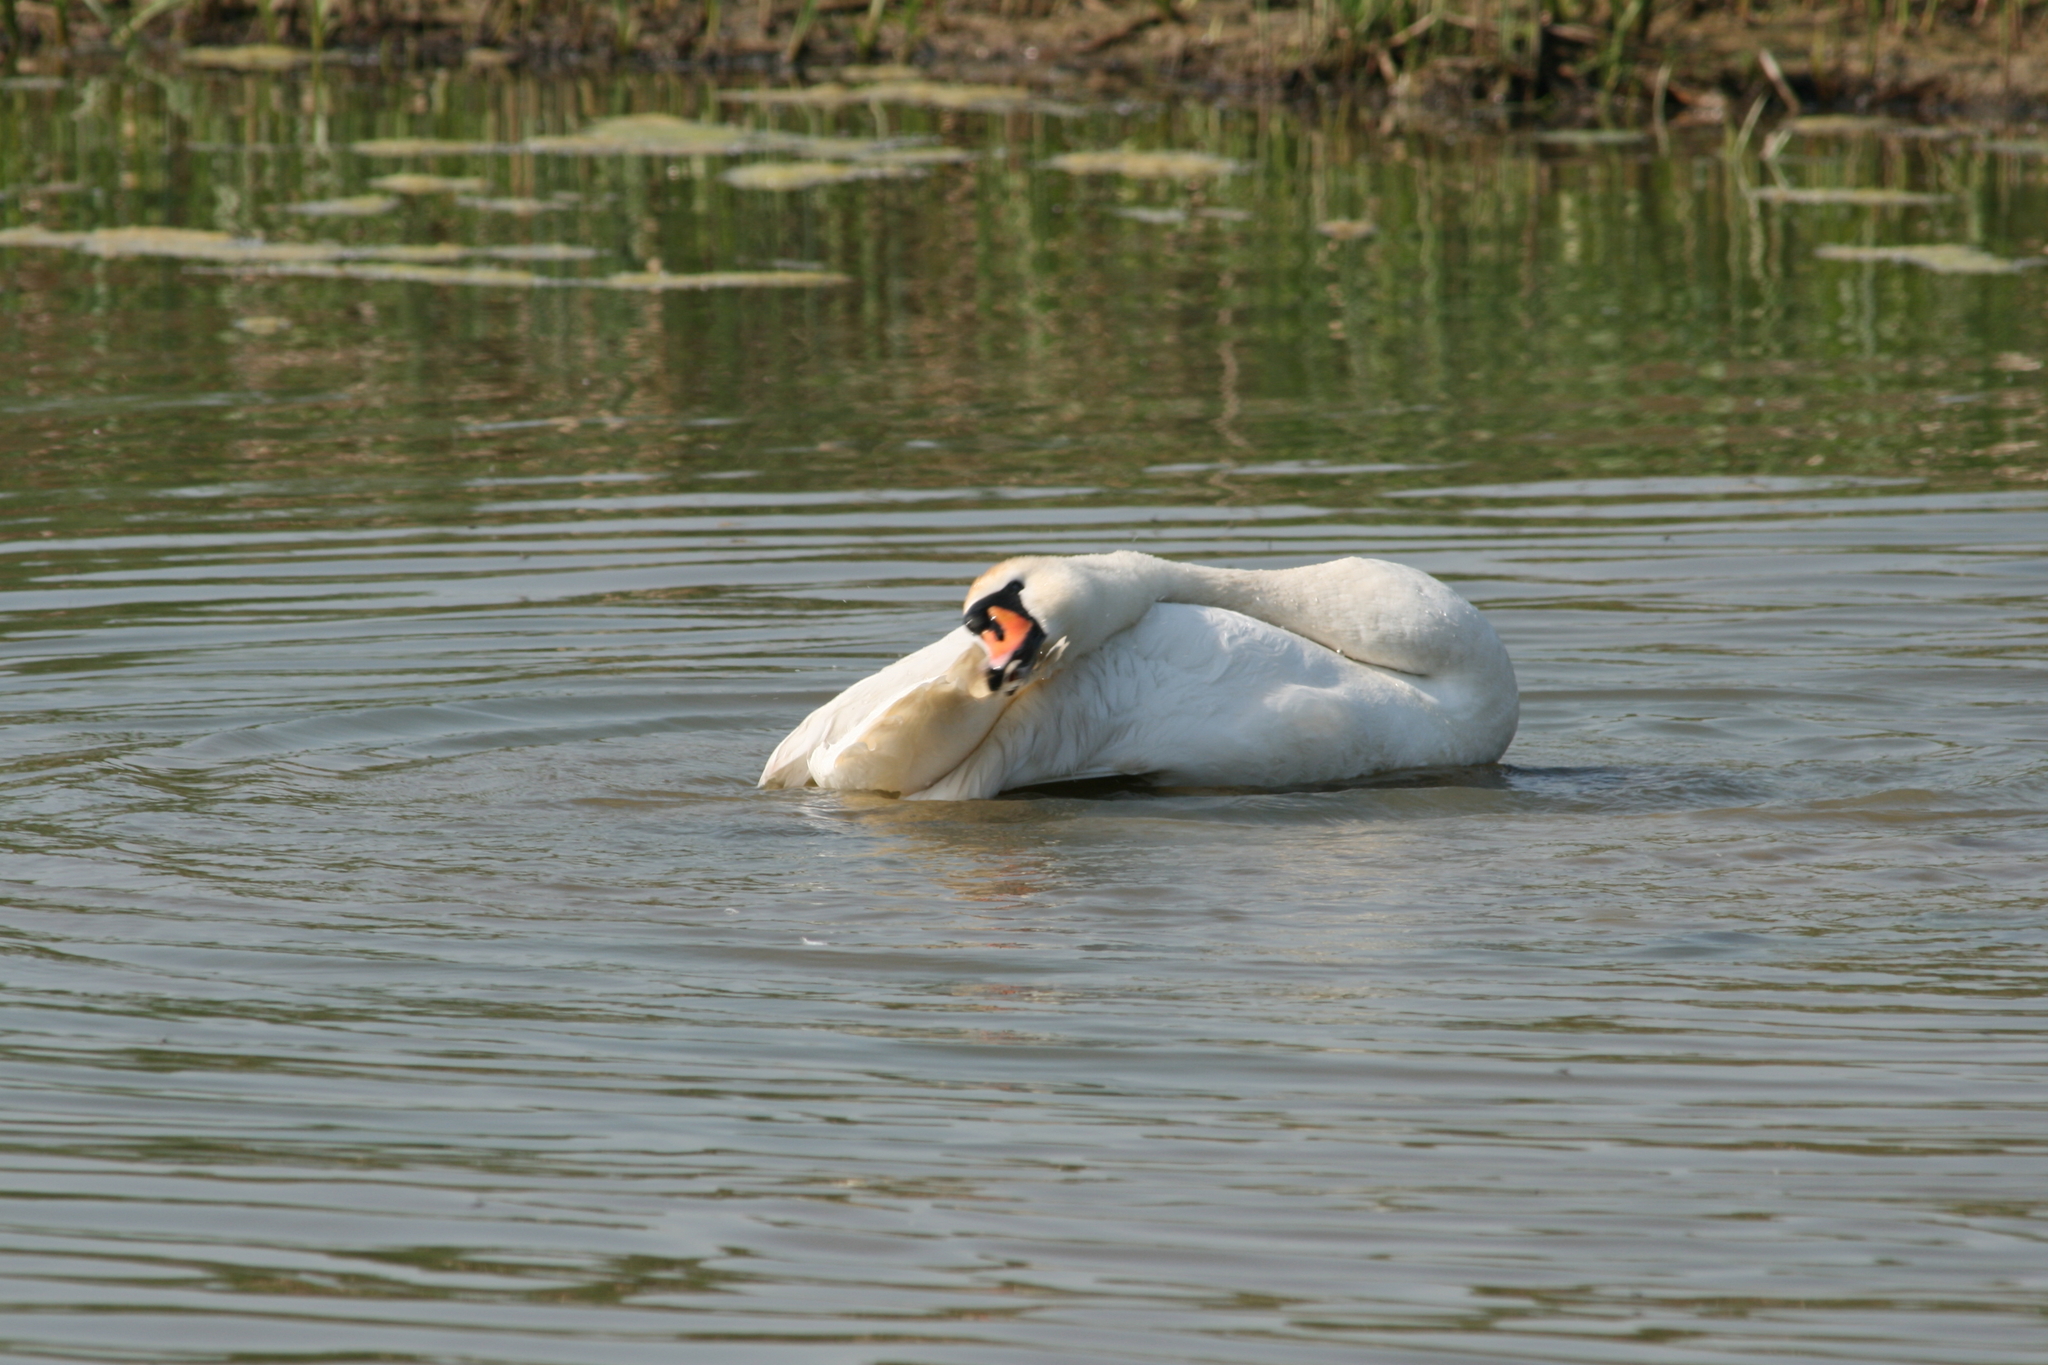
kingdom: Animalia
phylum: Chordata
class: Aves
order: Anseriformes
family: Anatidae
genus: Cygnus
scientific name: Cygnus olor
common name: Mute swan
